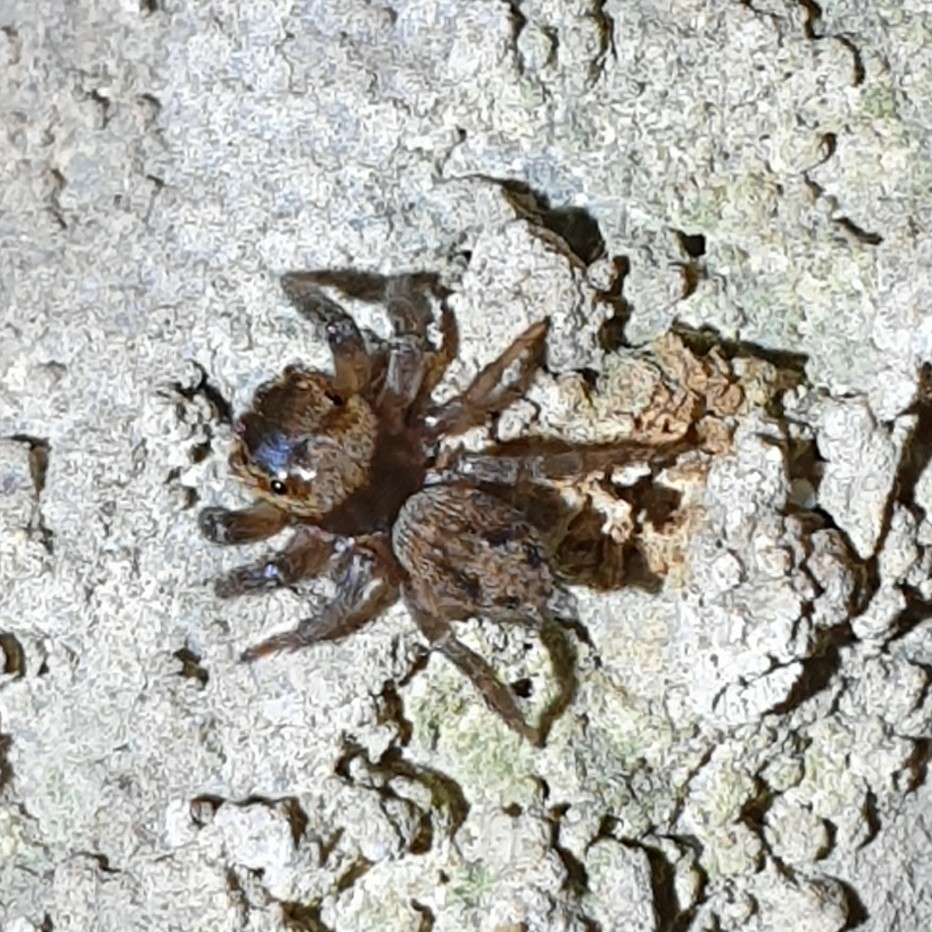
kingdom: Animalia
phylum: Arthropoda
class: Arachnida
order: Araneae
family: Salticidae
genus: Hasarius
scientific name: Hasarius adansoni
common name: Jumping spider
